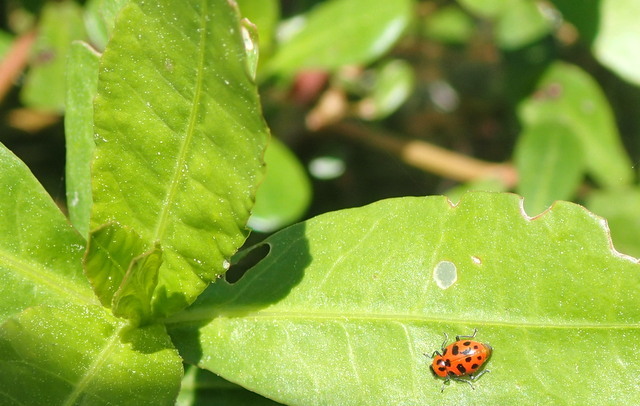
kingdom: Animalia
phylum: Arthropoda
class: Insecta
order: Coleoptera
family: Coccinellidae
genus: Coleomegilla
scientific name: Coleomegilla maculata
